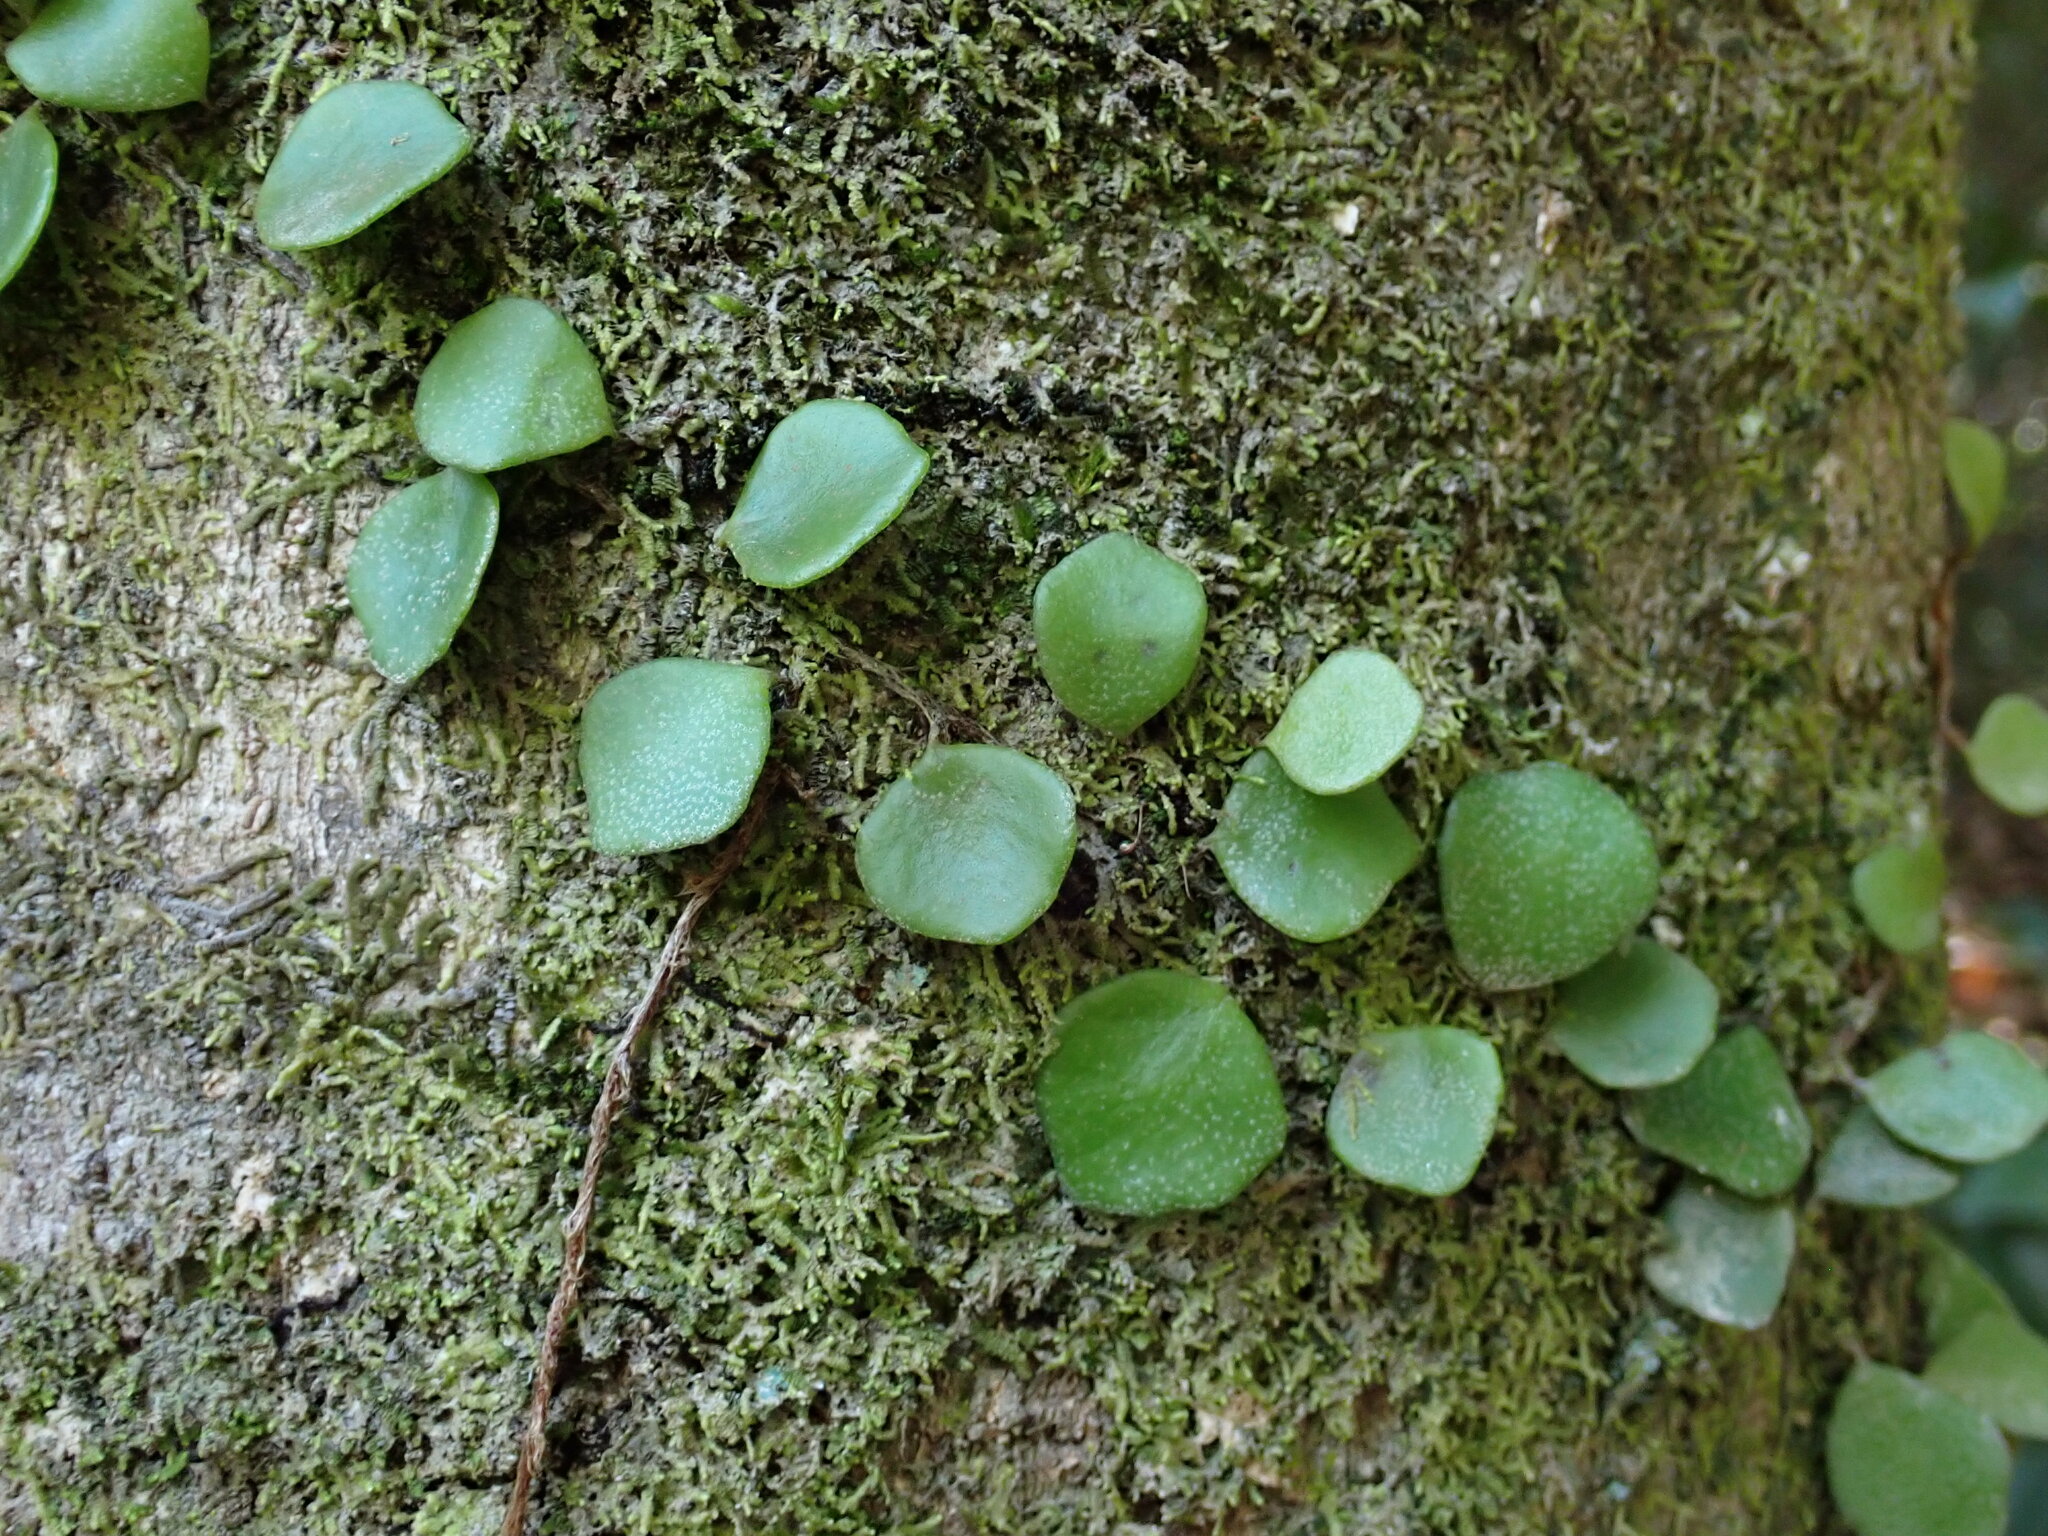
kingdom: Plantae
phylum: Tracheophyta
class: Polypodiopsida
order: Polypodiales
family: Polypodiaceae
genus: Pyrrosia
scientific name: Pyrrosia rupestris
